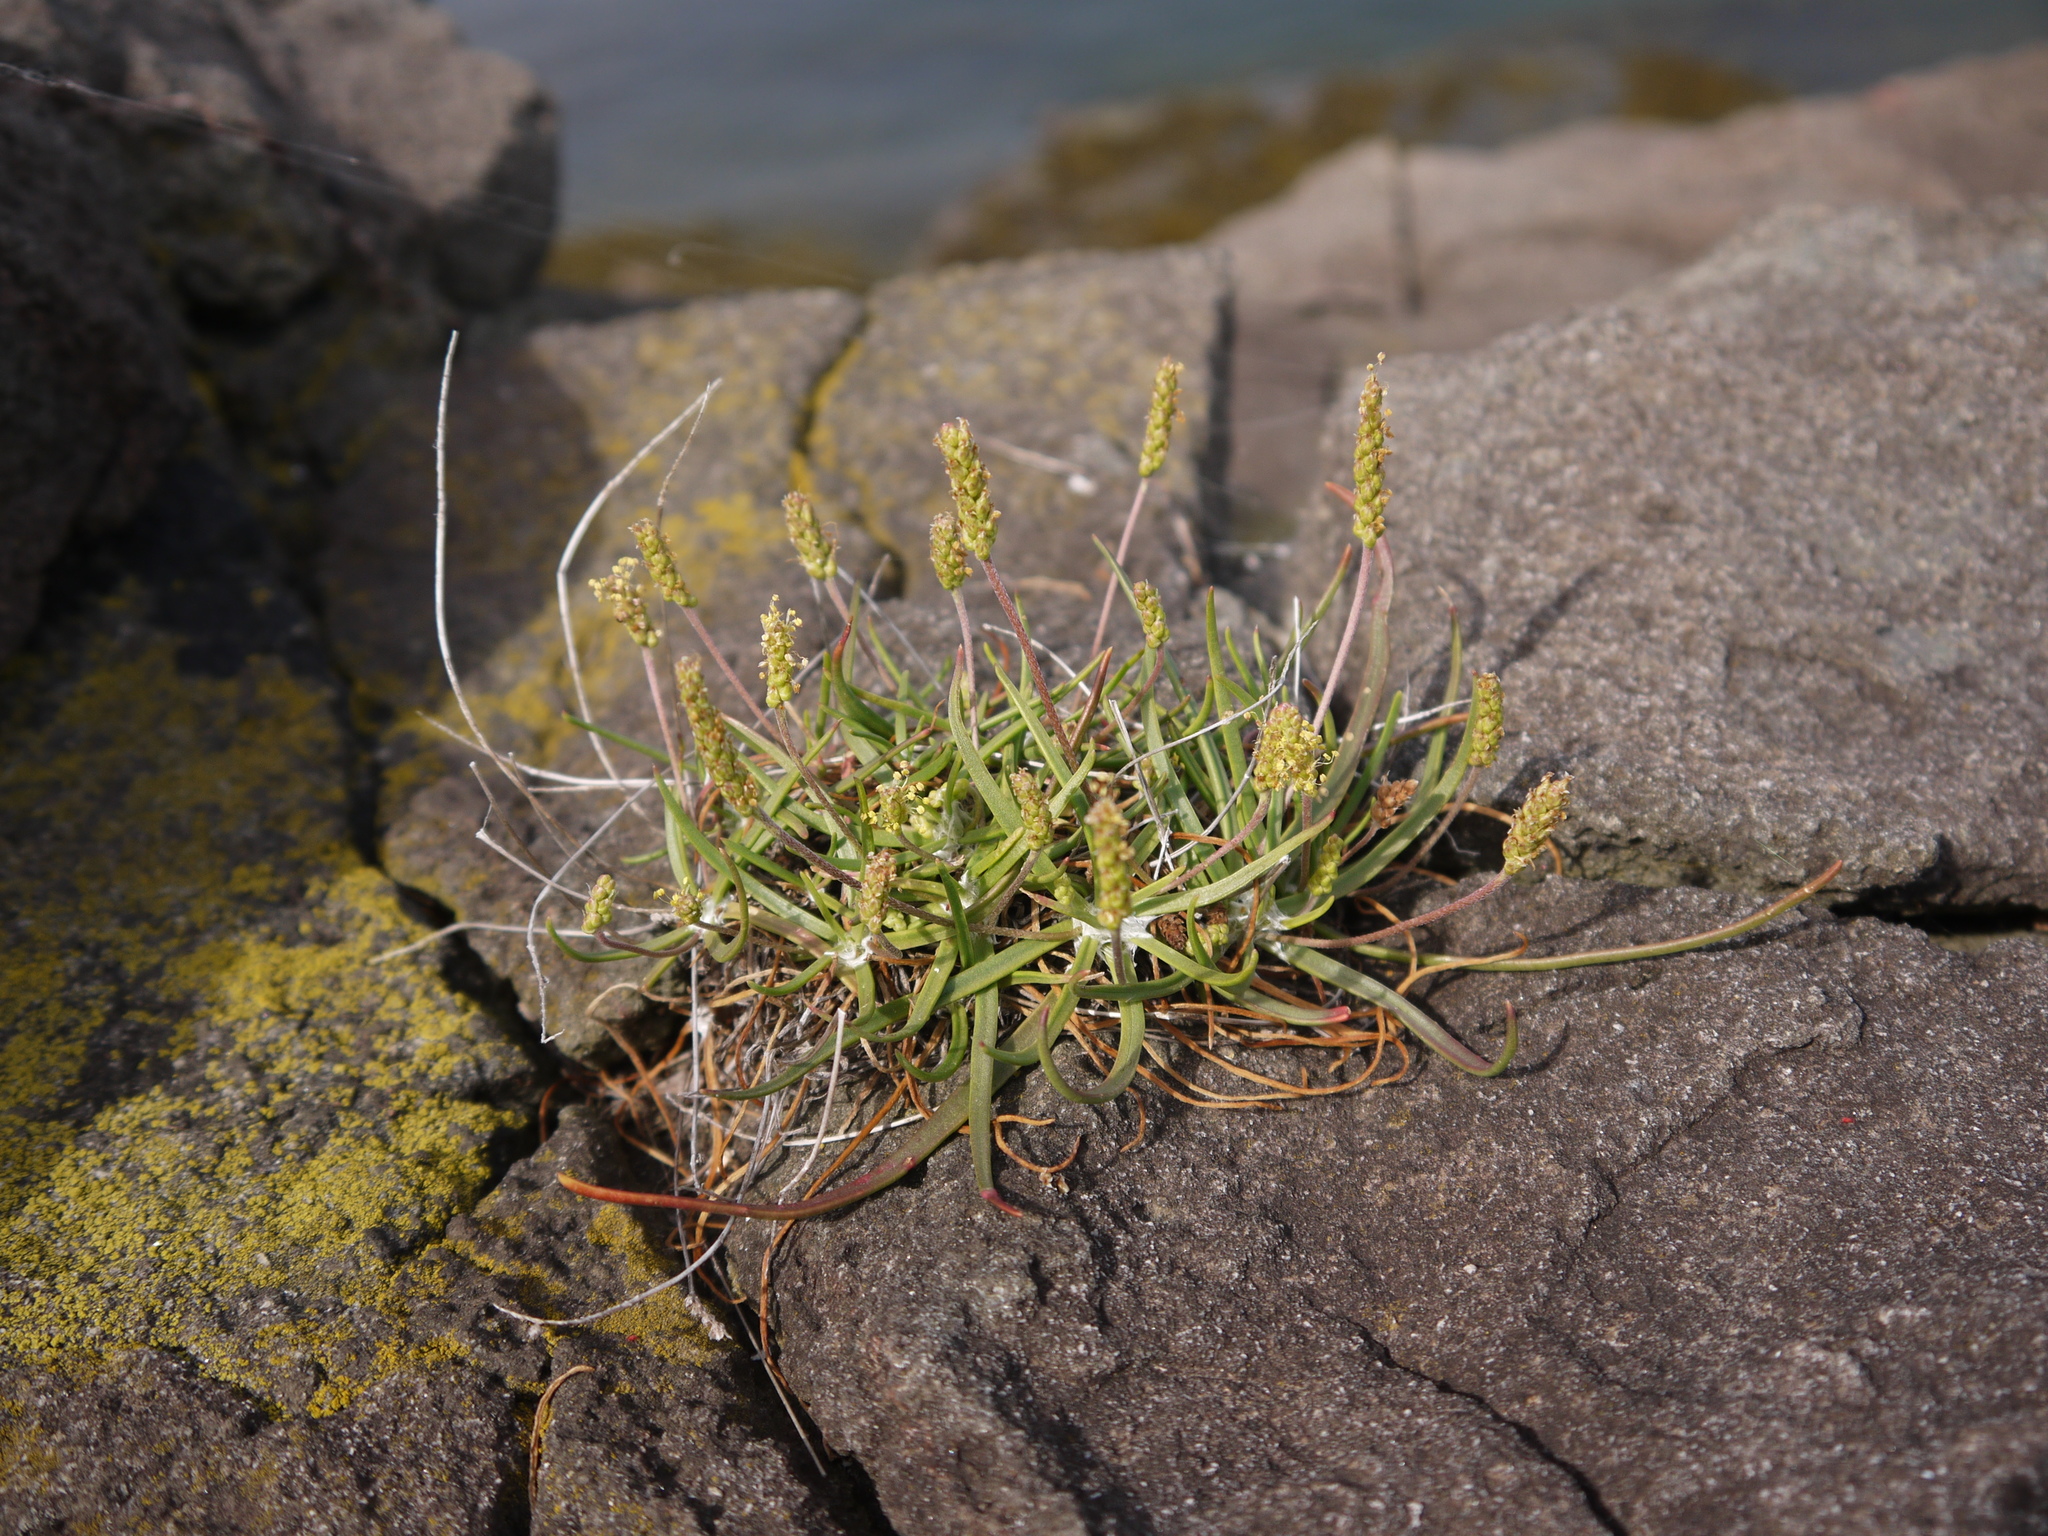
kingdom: Plantae
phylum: Tracheophyta
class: Magnoliopsida
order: Lamiales
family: Plantaginaceae
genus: Plantago
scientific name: Plantago maritima
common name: Sea plantain
